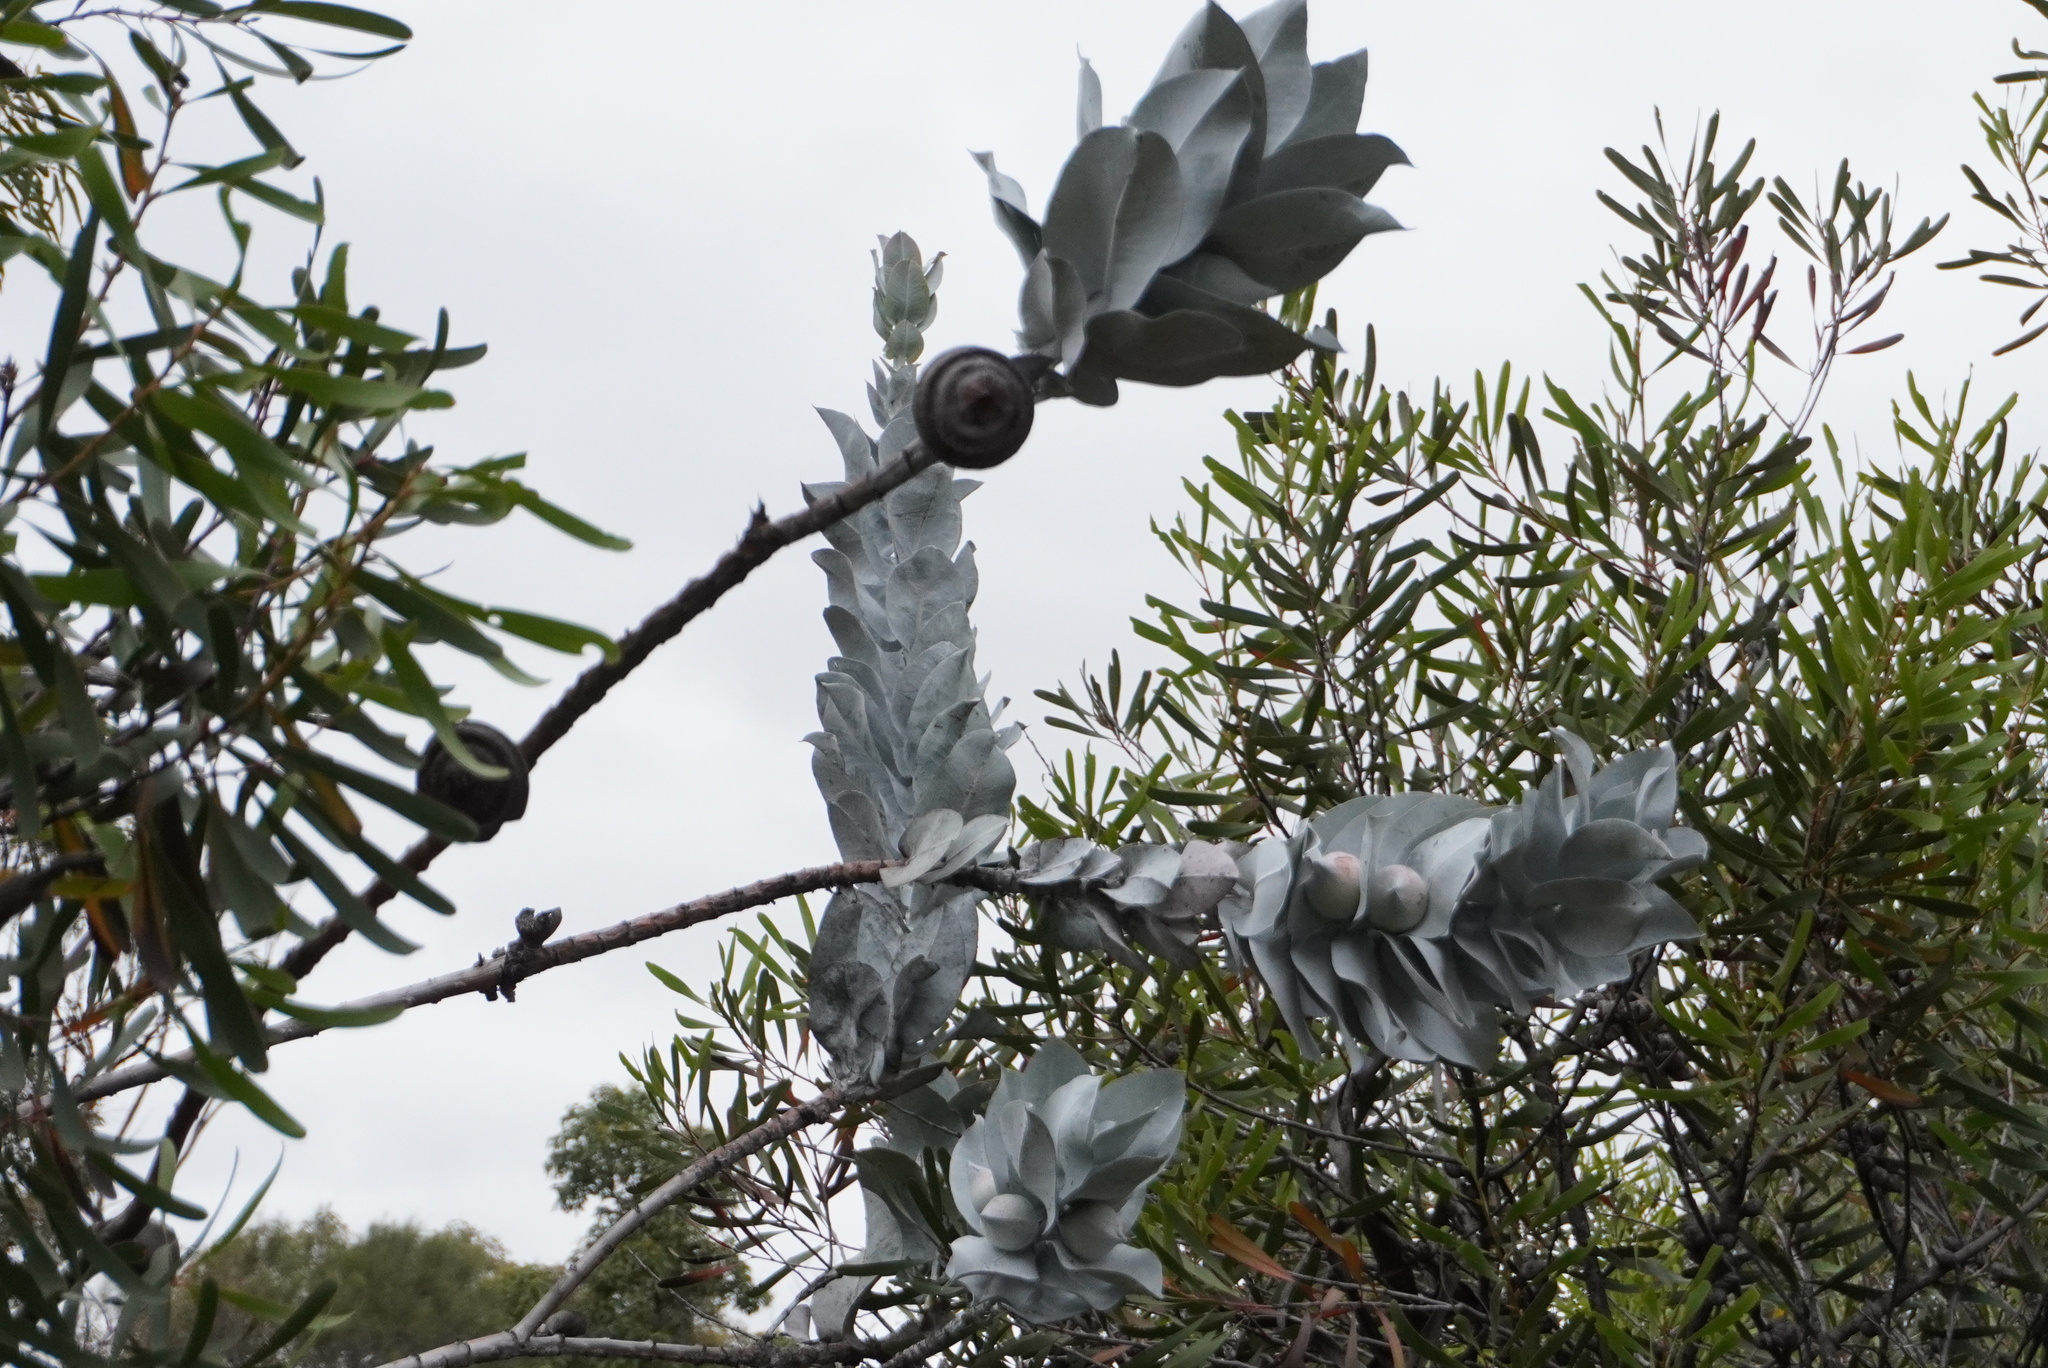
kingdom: Plantae
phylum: Tracheophyta
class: Magnoliopsida
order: Myrtales
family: Myrtaceae
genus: Eucalyptus
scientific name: Eucalyptus macrocarpa
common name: Mottlecah
